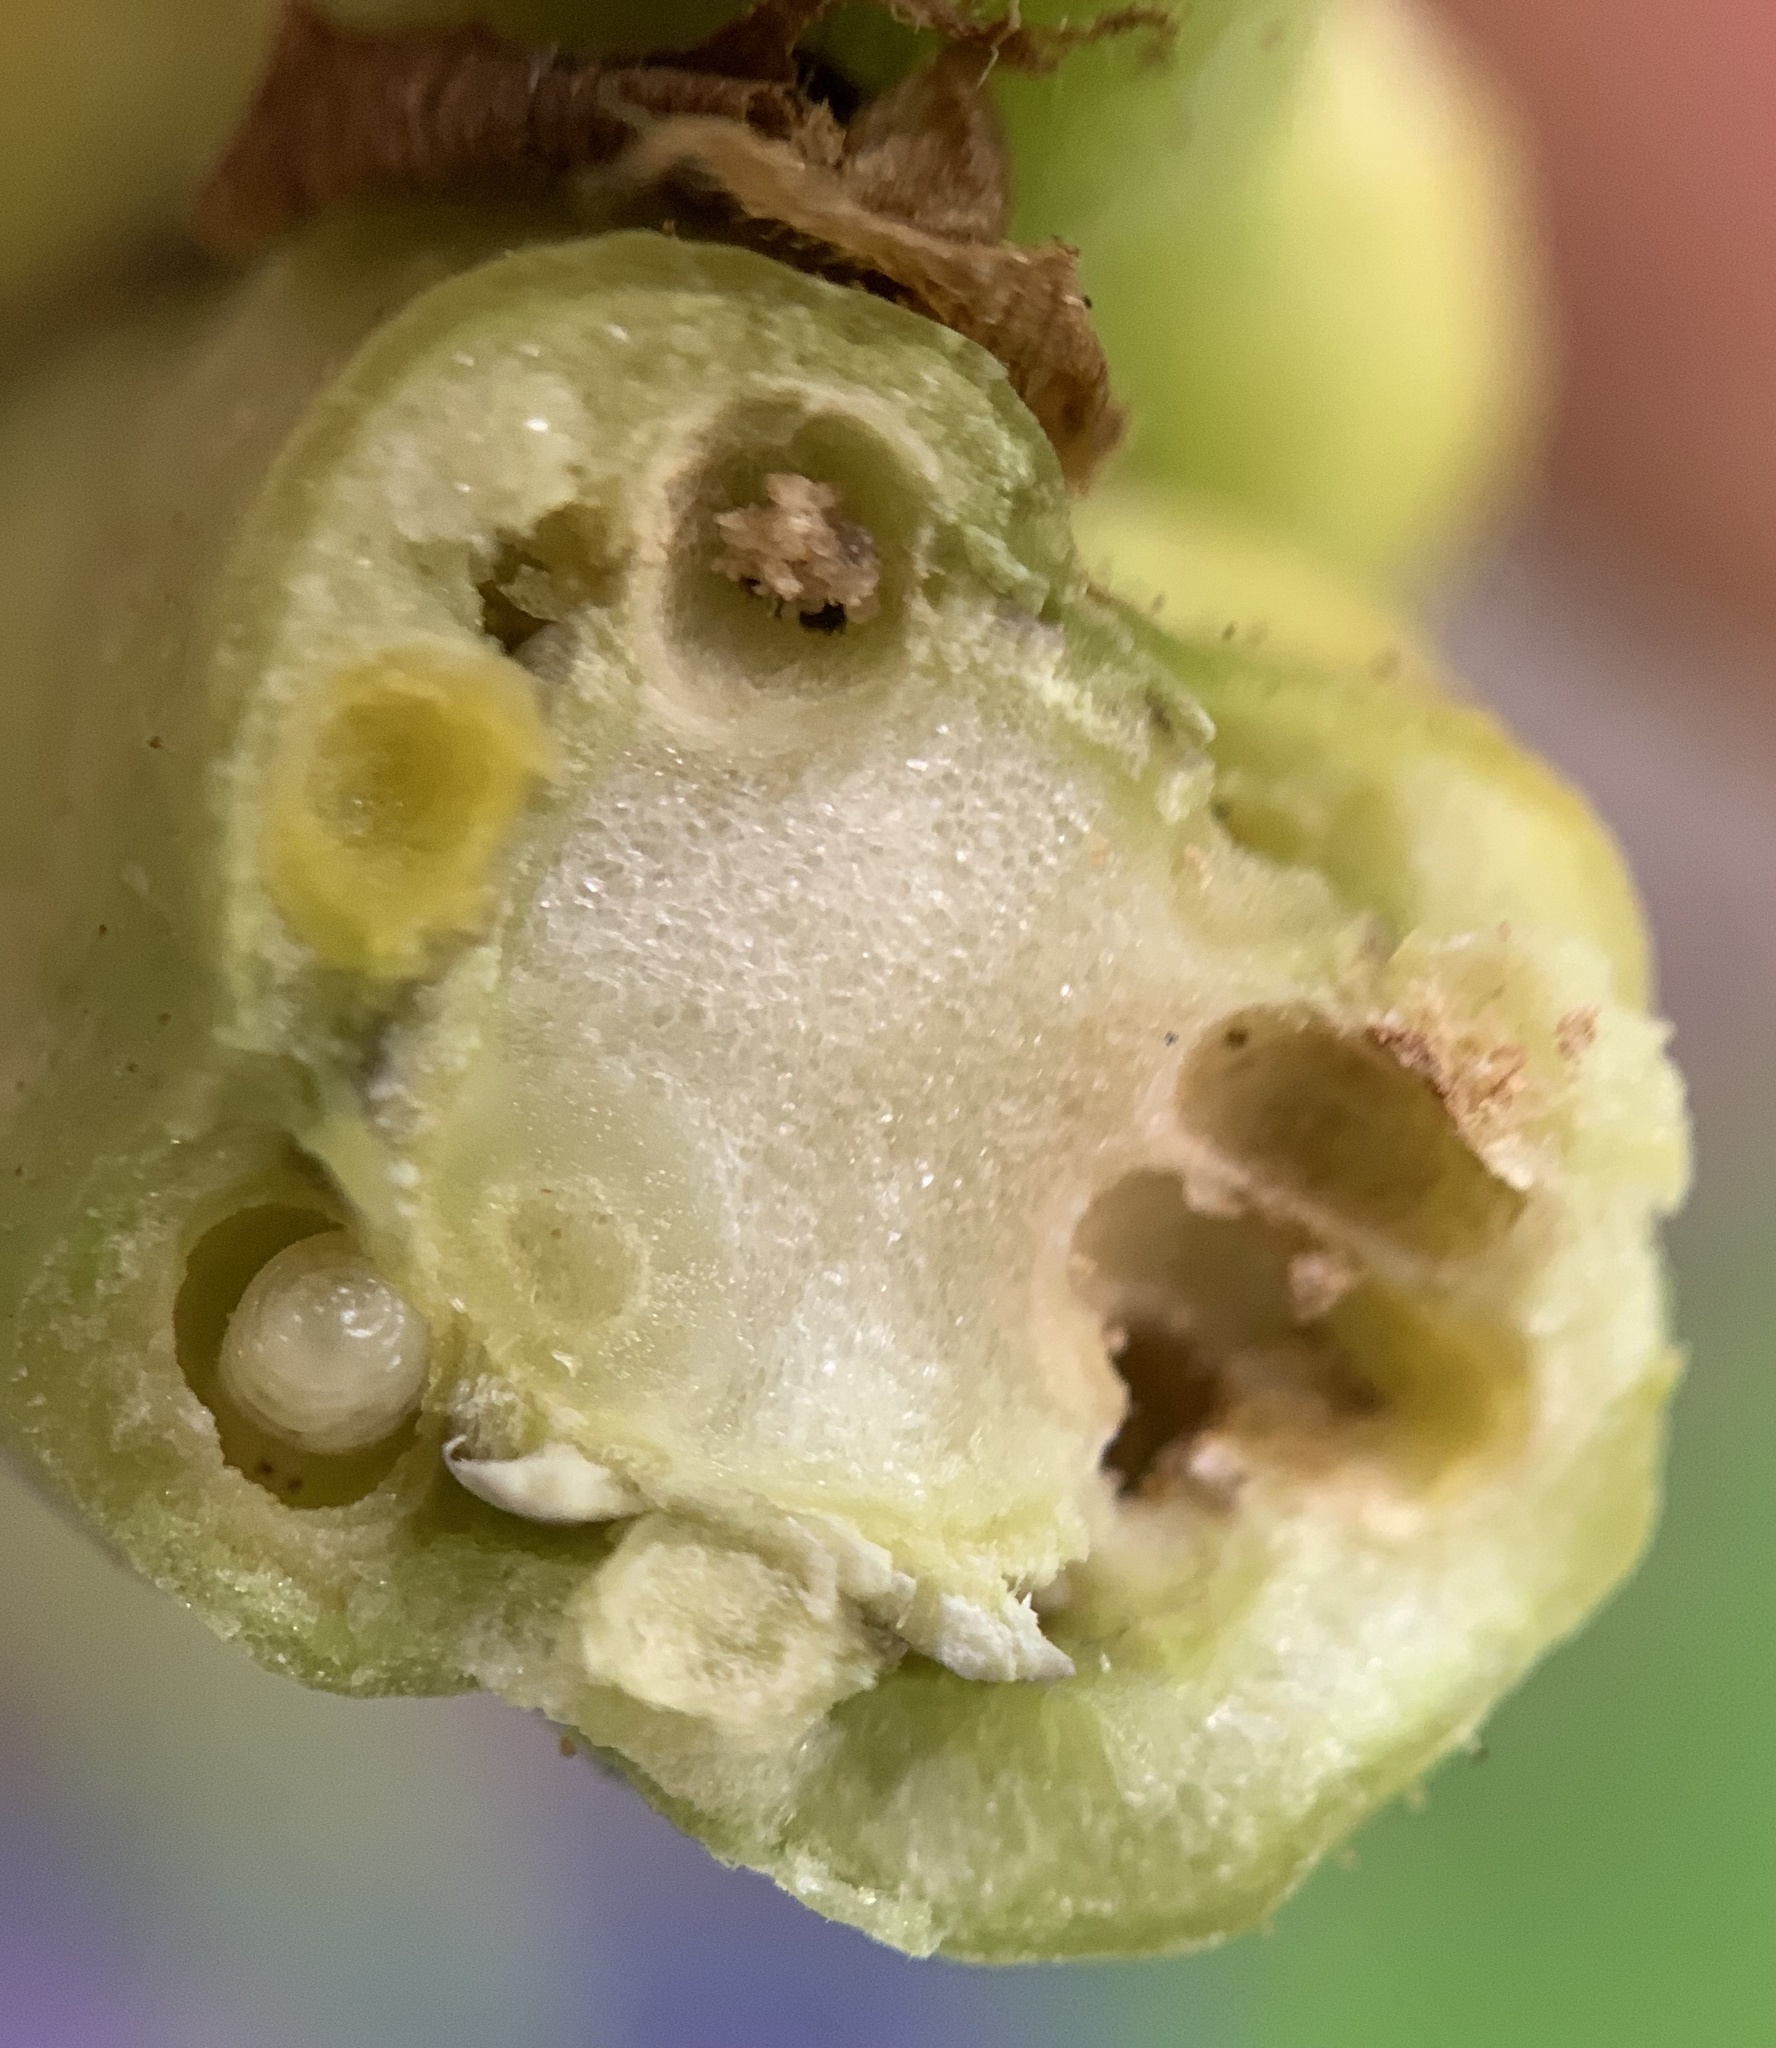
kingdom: Animalia
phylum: Arthropoda
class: Insecta
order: Hymenoptera
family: Cynipidae
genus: Diastrophus
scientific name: Diastrophus
